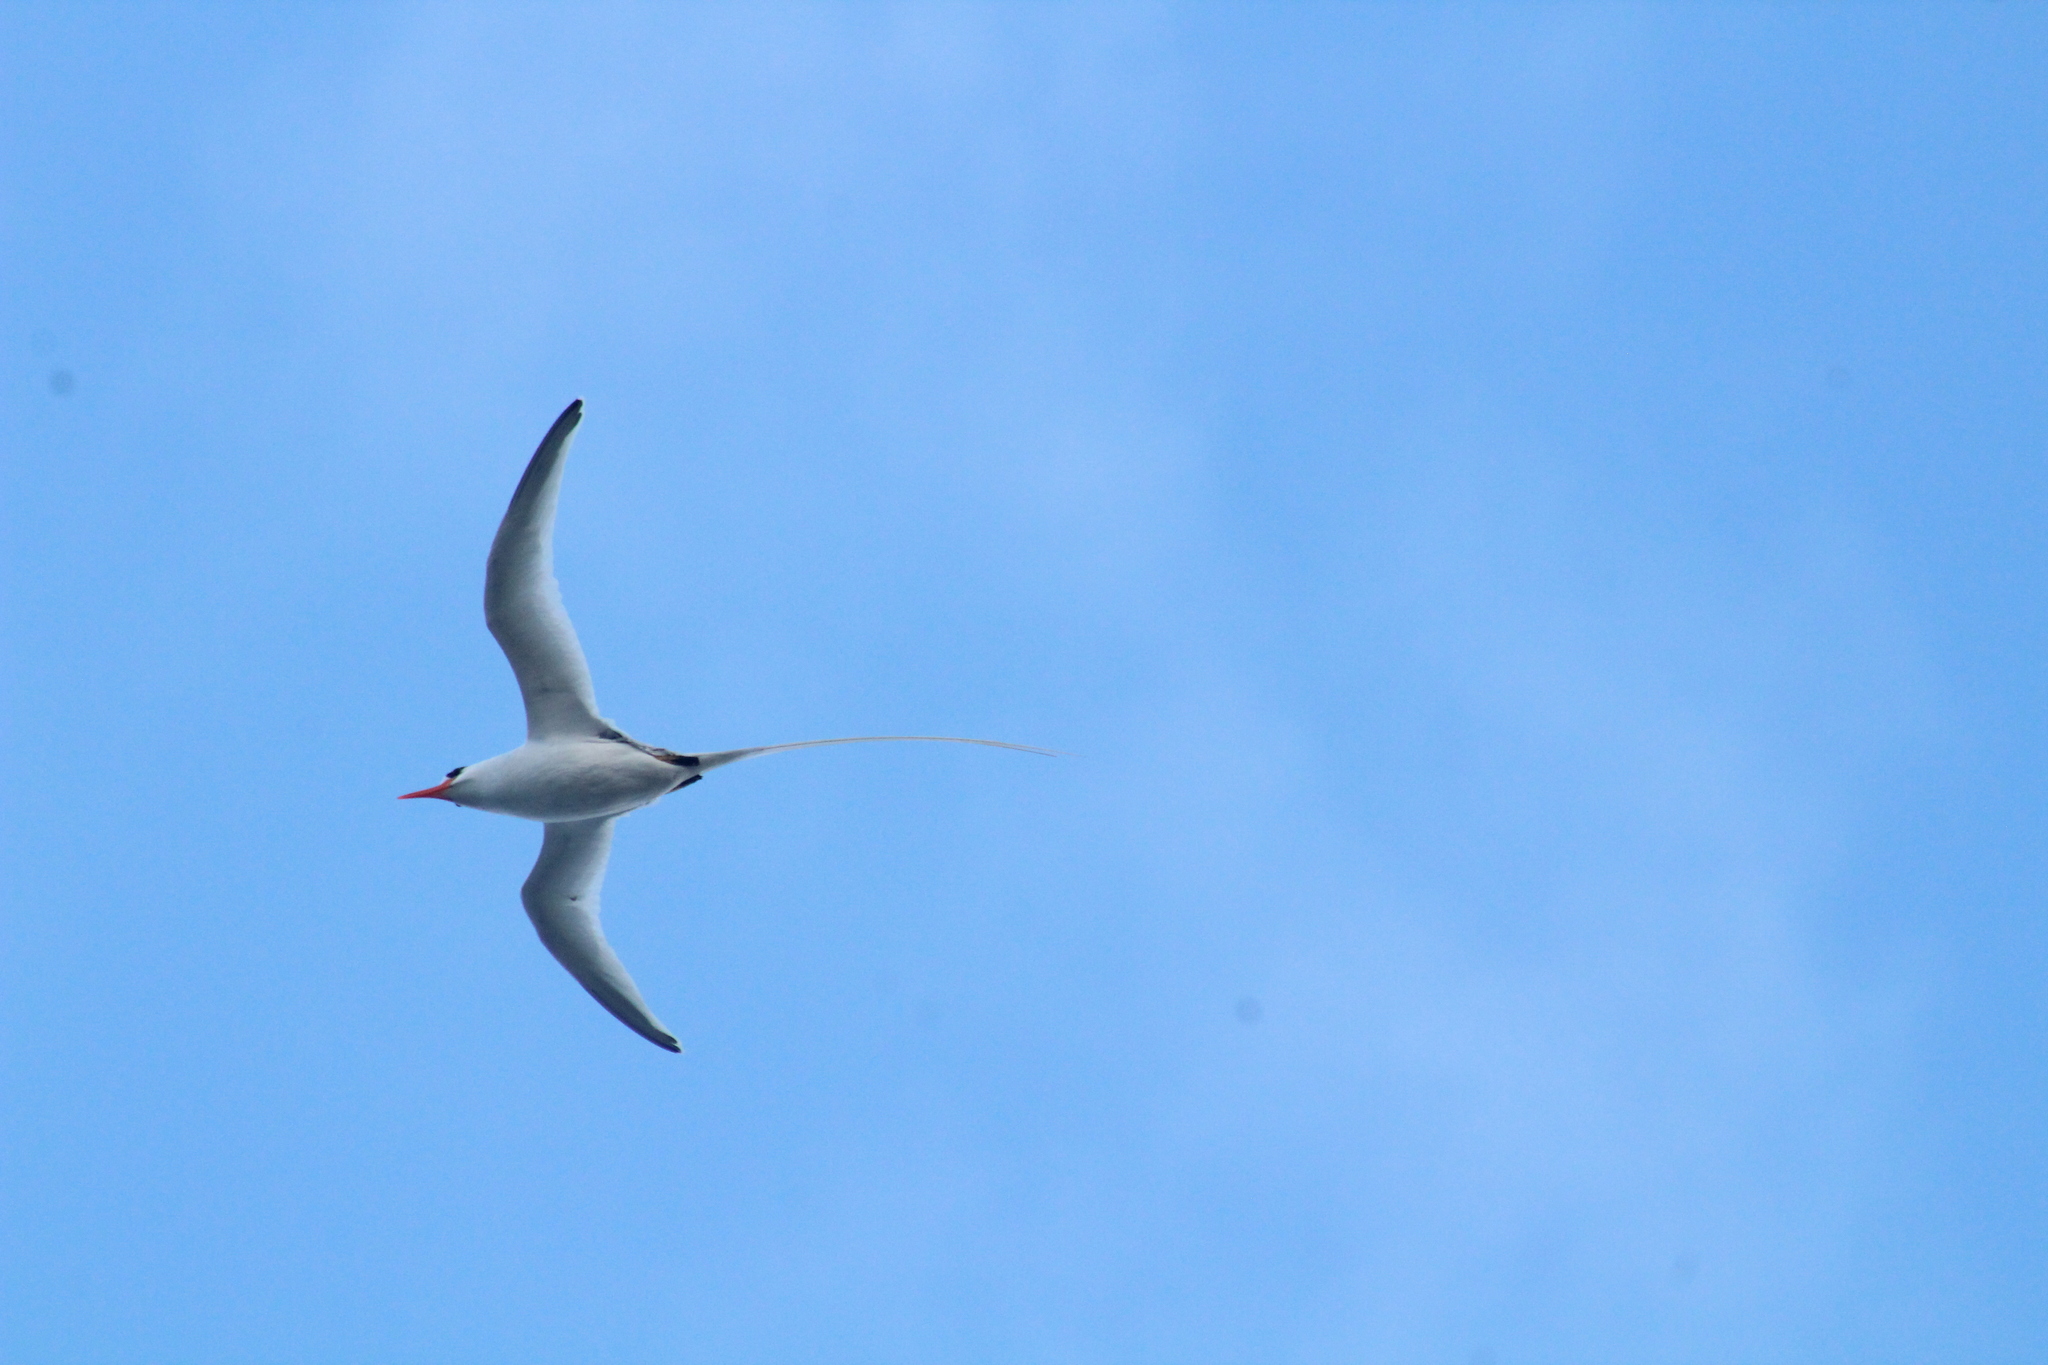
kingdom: Animalia
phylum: Chordata
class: Aves
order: Phaethontiformes
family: Phaethontidae
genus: Phaethon
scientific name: Phaethon aethereus
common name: Red-billed tropicbird
